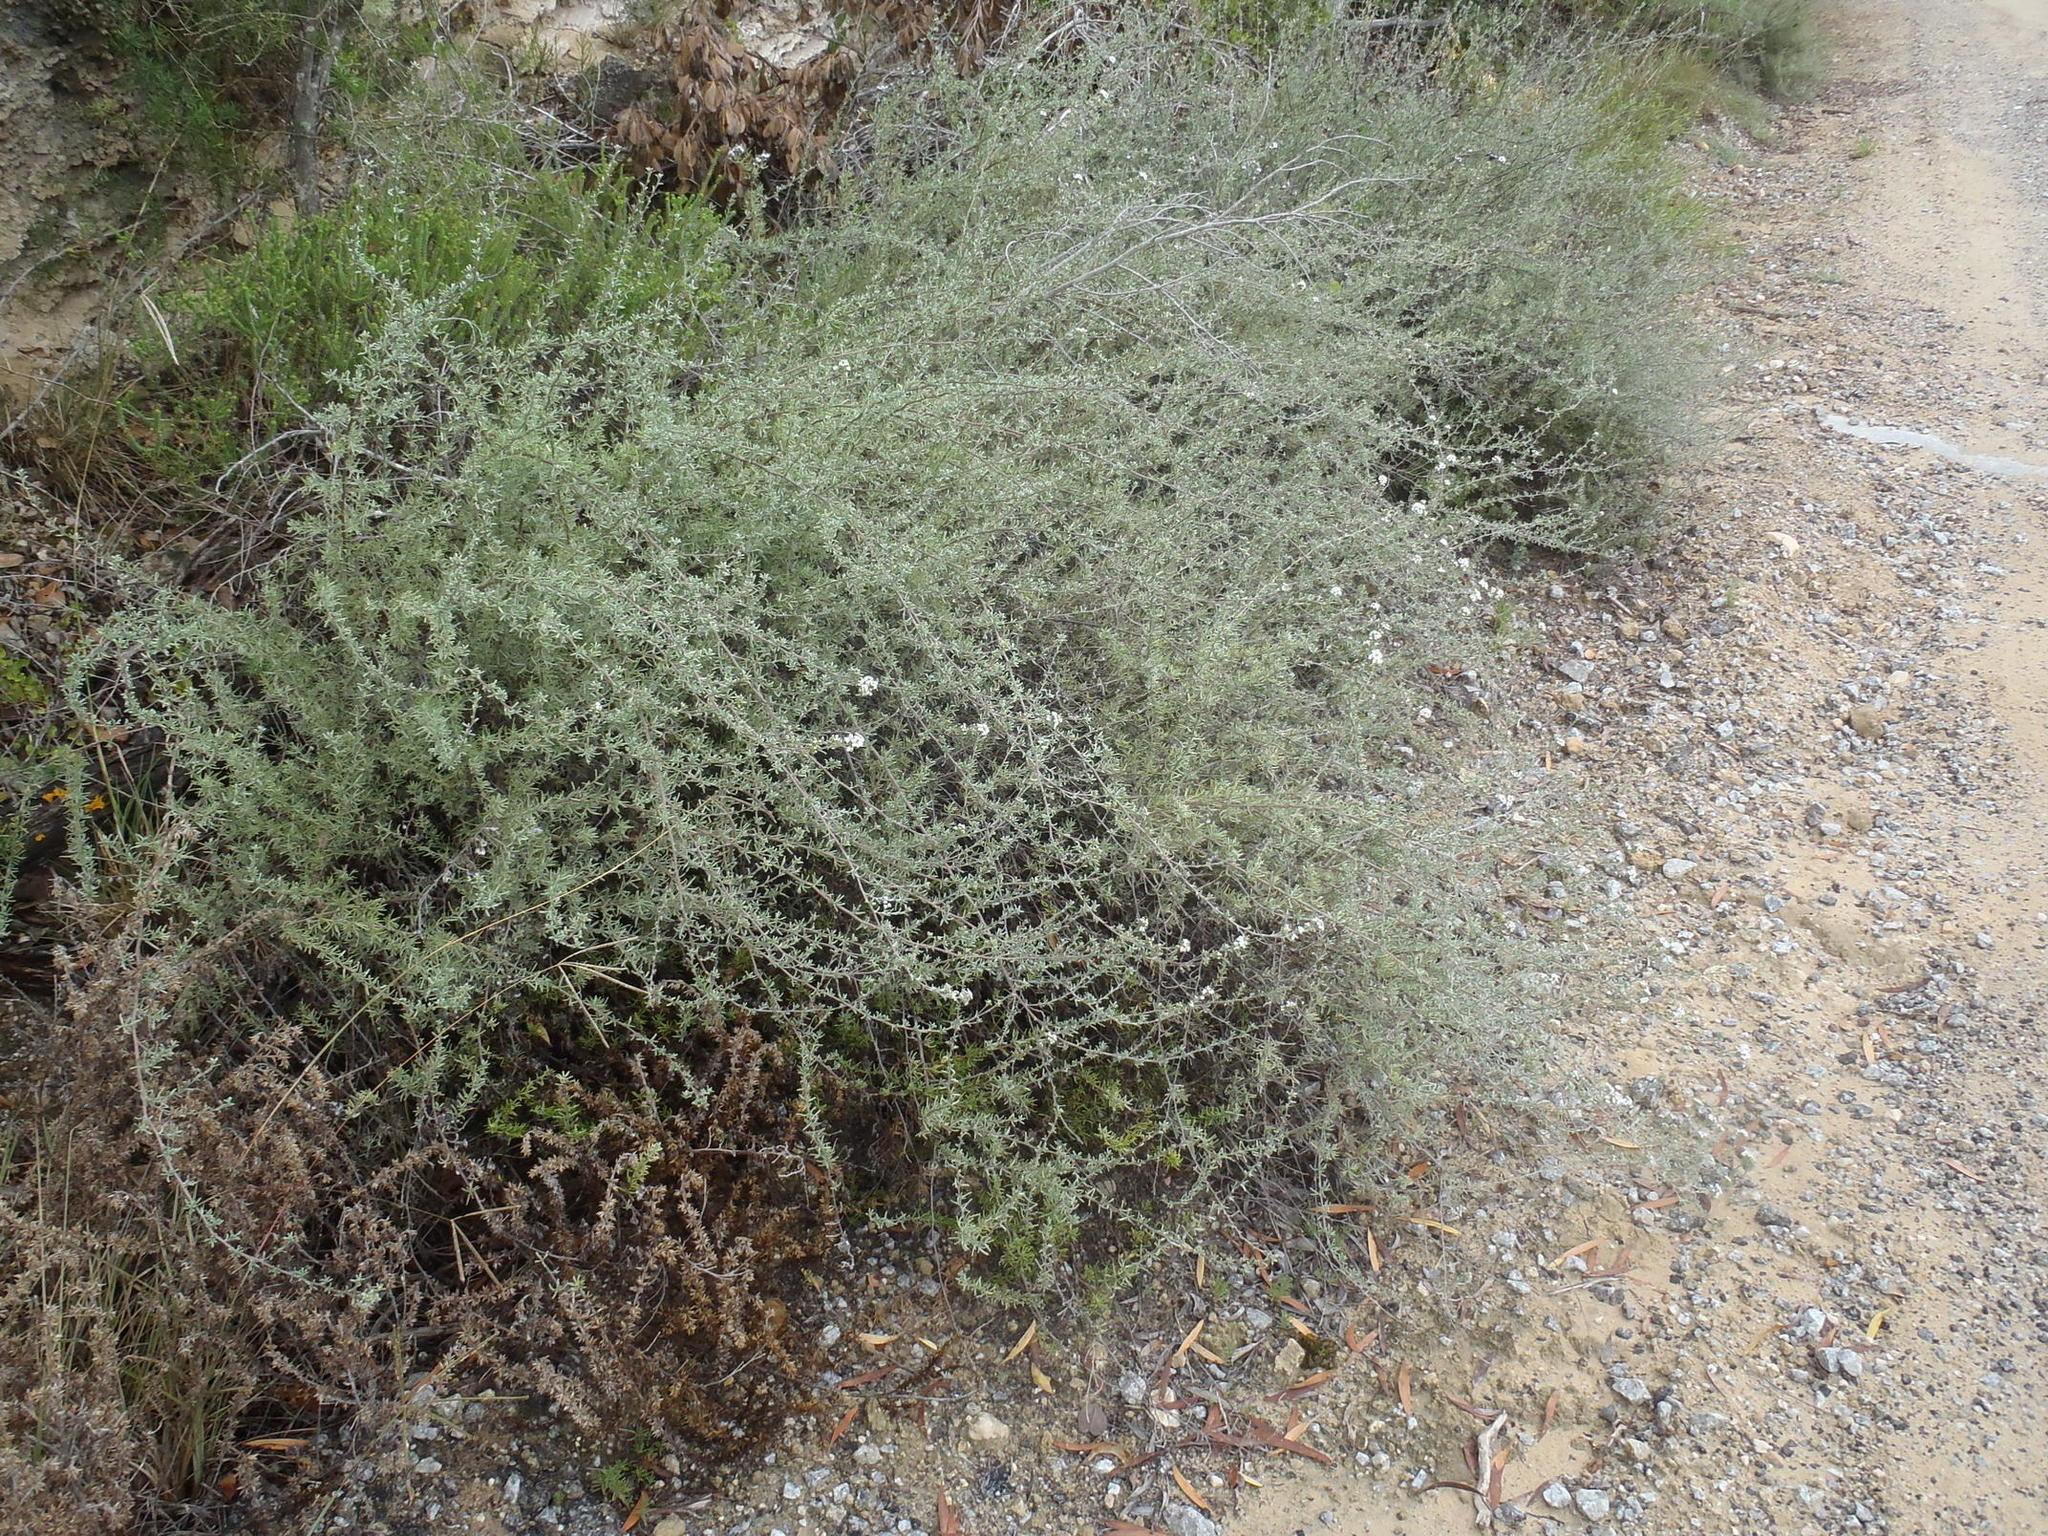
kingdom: Plantae
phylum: Tracheophyta
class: Magnoliopsida
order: Asterales
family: Asteraceae
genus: Eriocephalus
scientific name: Eriocephalus africanus
